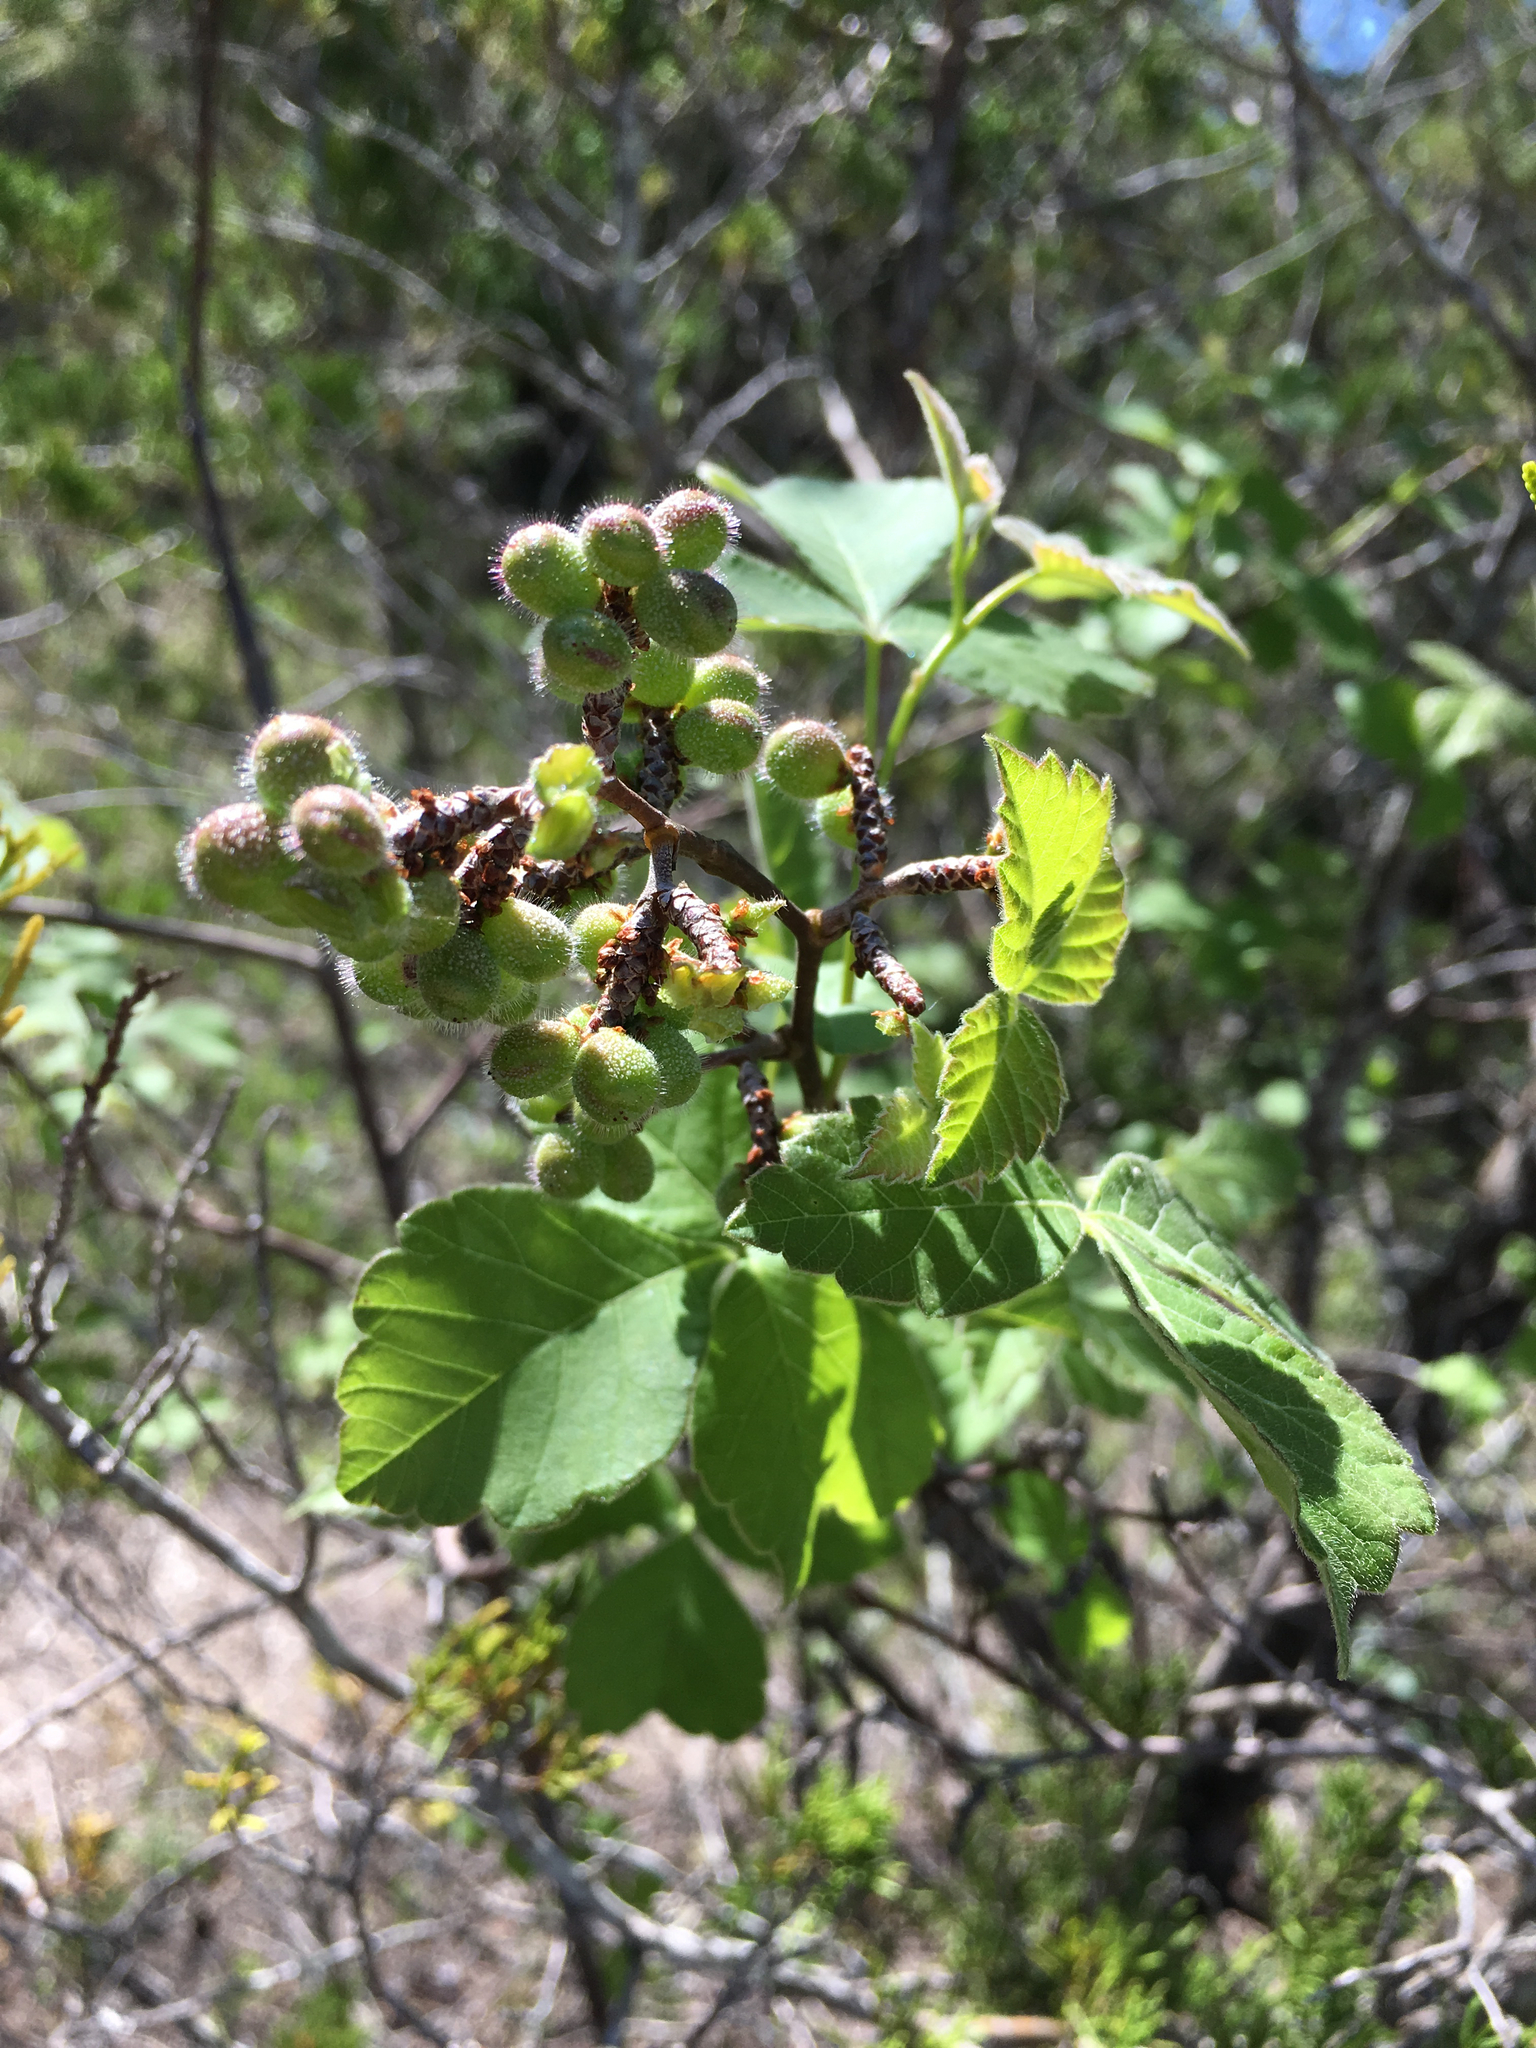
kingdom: Plantae
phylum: Tracheophyta
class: Magnoliopsida
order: Sapindales
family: Anacardiaceae
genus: Rhus
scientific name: Rhus aromatica
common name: Aromatic sumac
